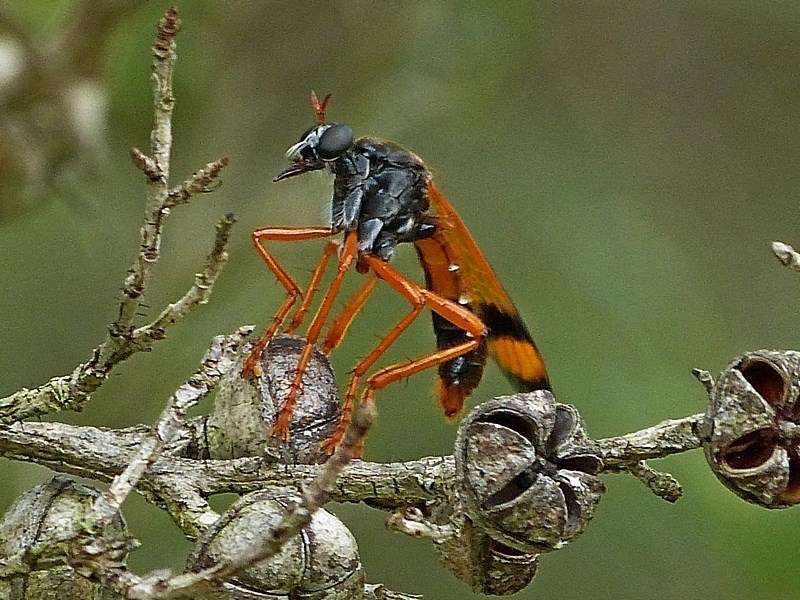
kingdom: Animalia
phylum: Arthropoda
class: Insecta
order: Diptera
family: Asilidae
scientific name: Asilidae
